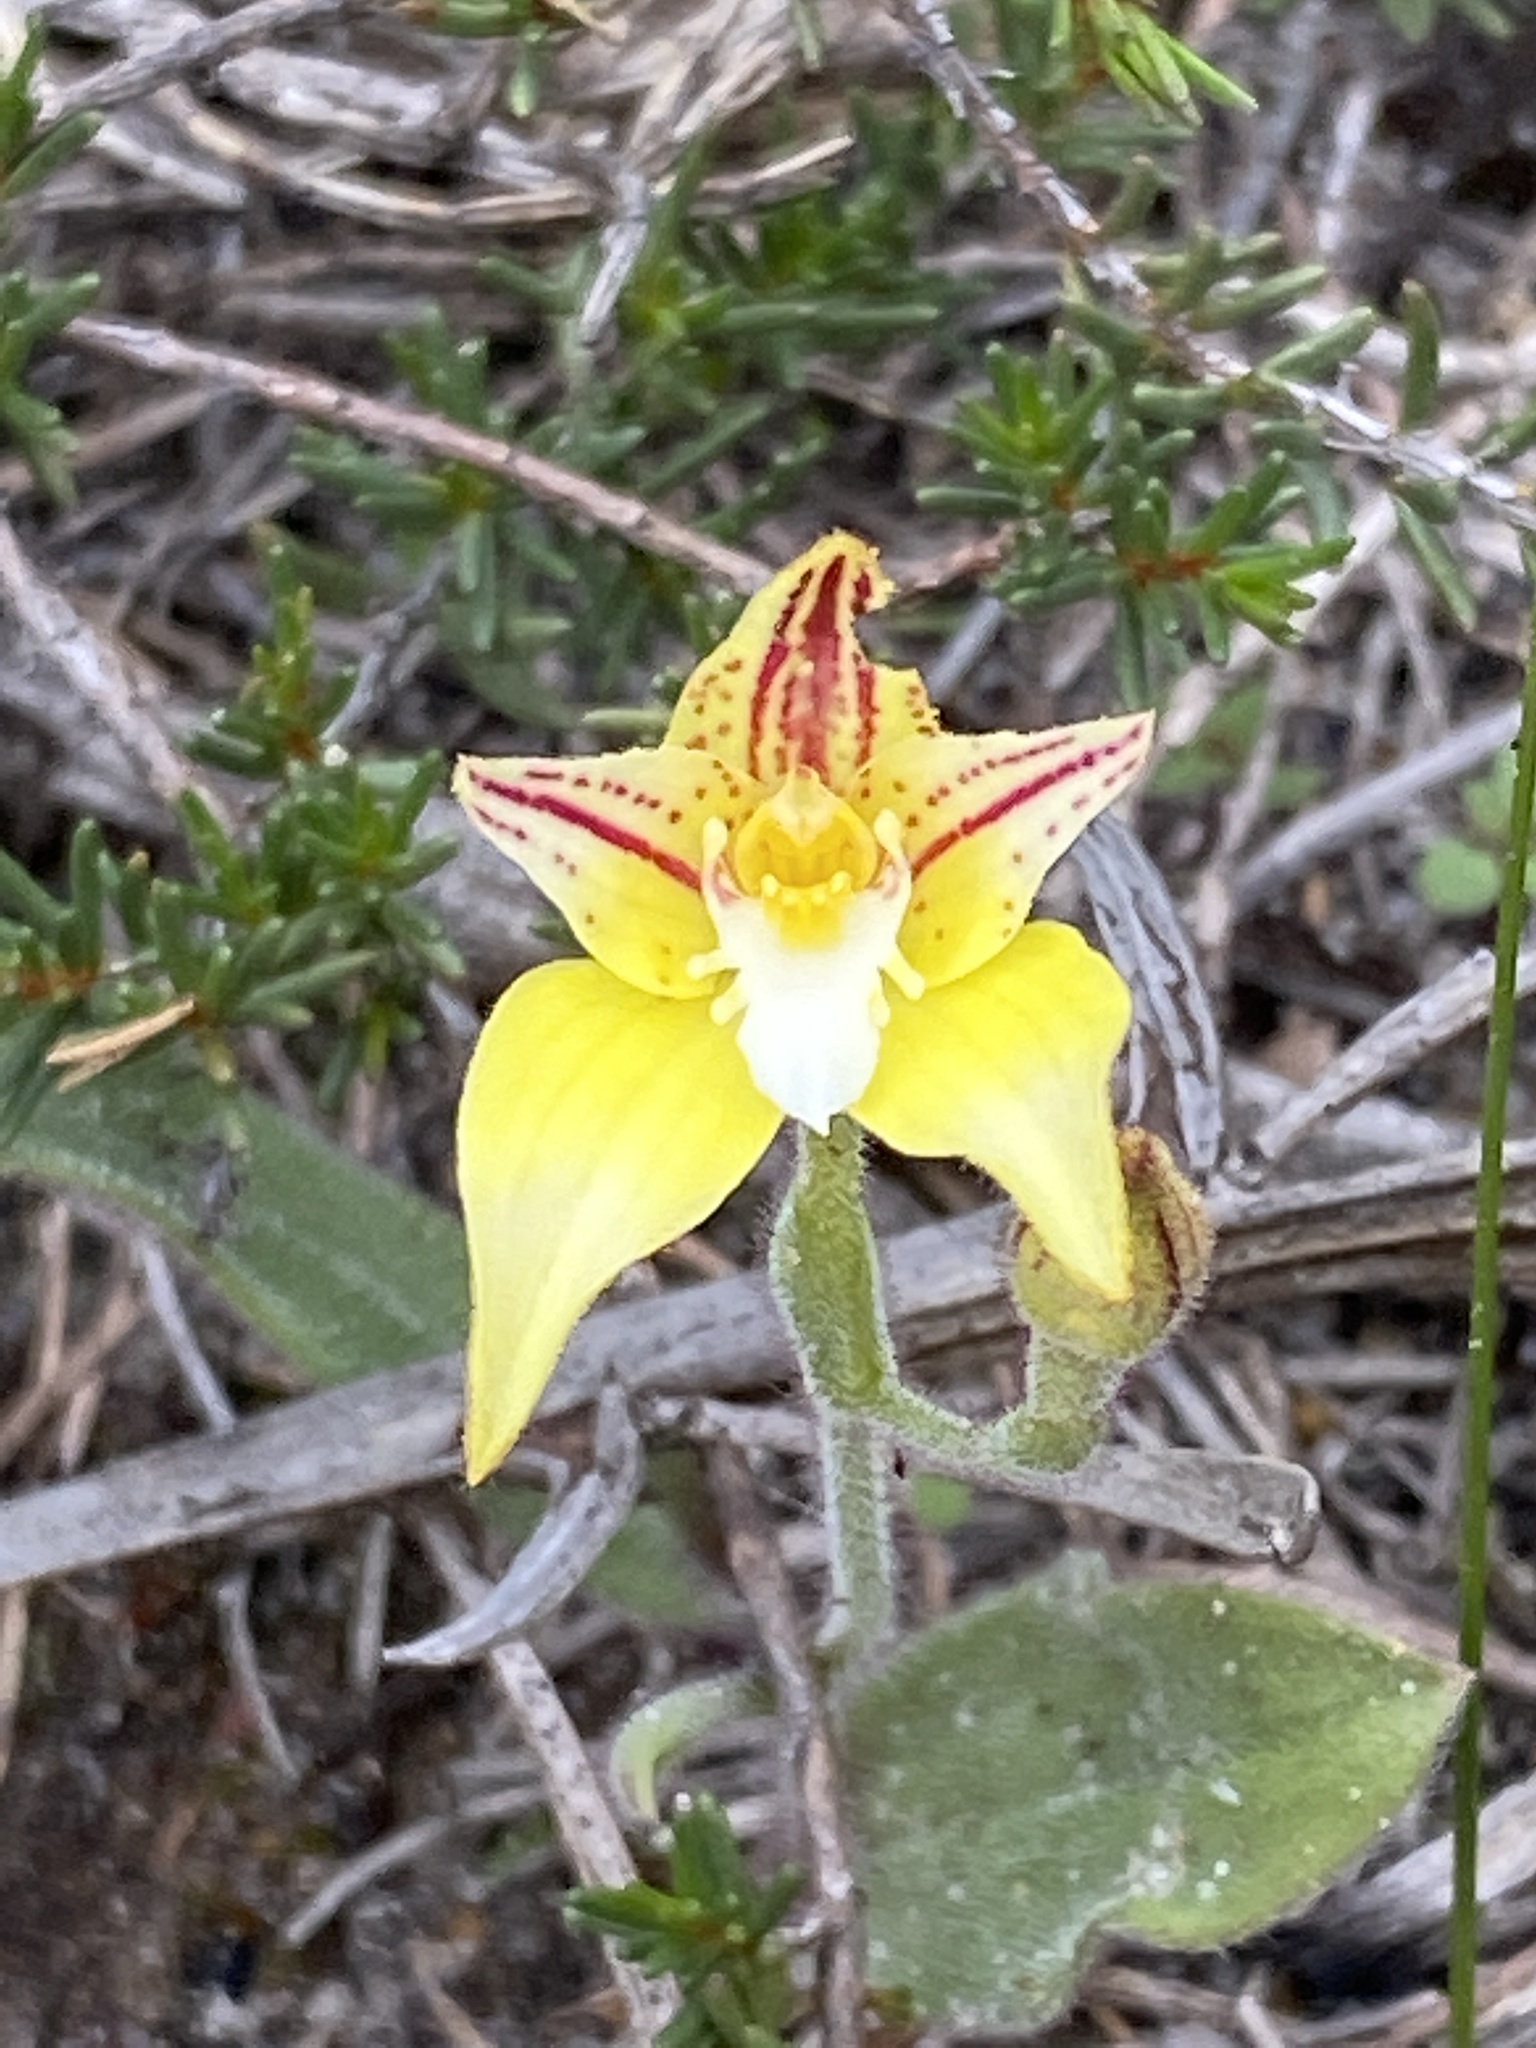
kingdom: Plantae
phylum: Tracheophyta
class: Liliopsida
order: Asparagales
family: Orchidaceae
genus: Caladenia
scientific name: Caladenia flava
